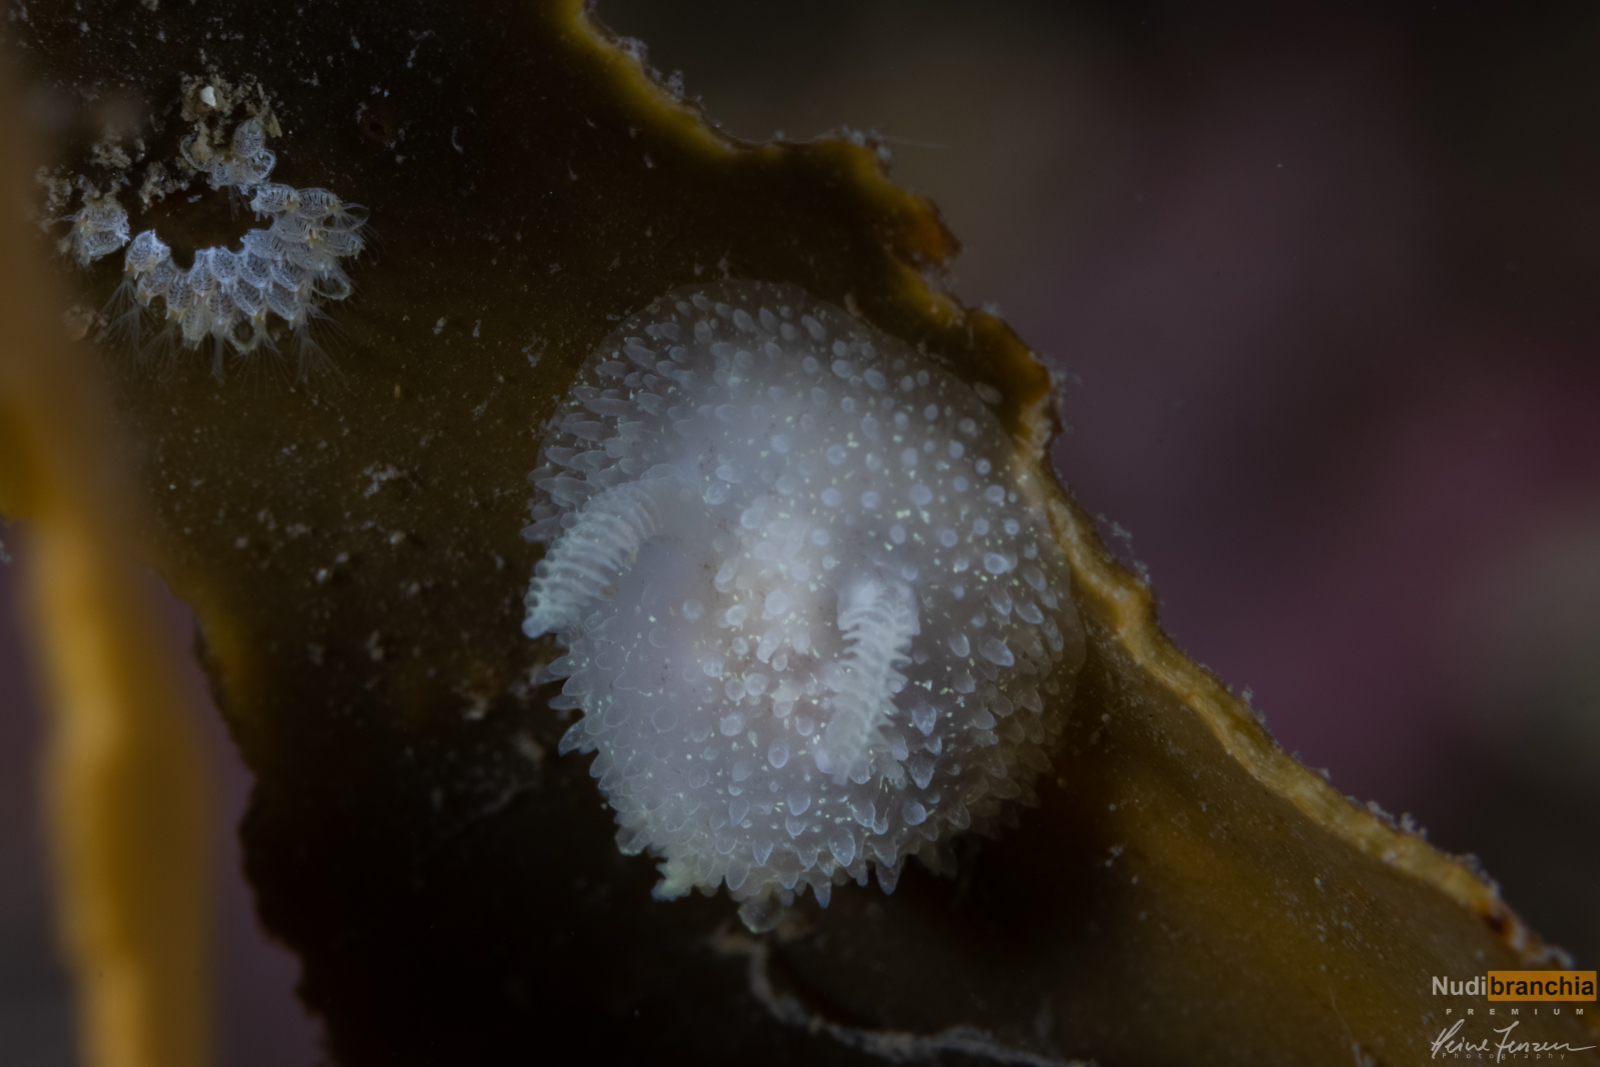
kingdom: Animalia
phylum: Mollusca
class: Gastropoda
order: Nudibranchia
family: Onchidorididae
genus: Acanthodoris
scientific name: Acanthodoris pilosa
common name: Hairy spiny doris
